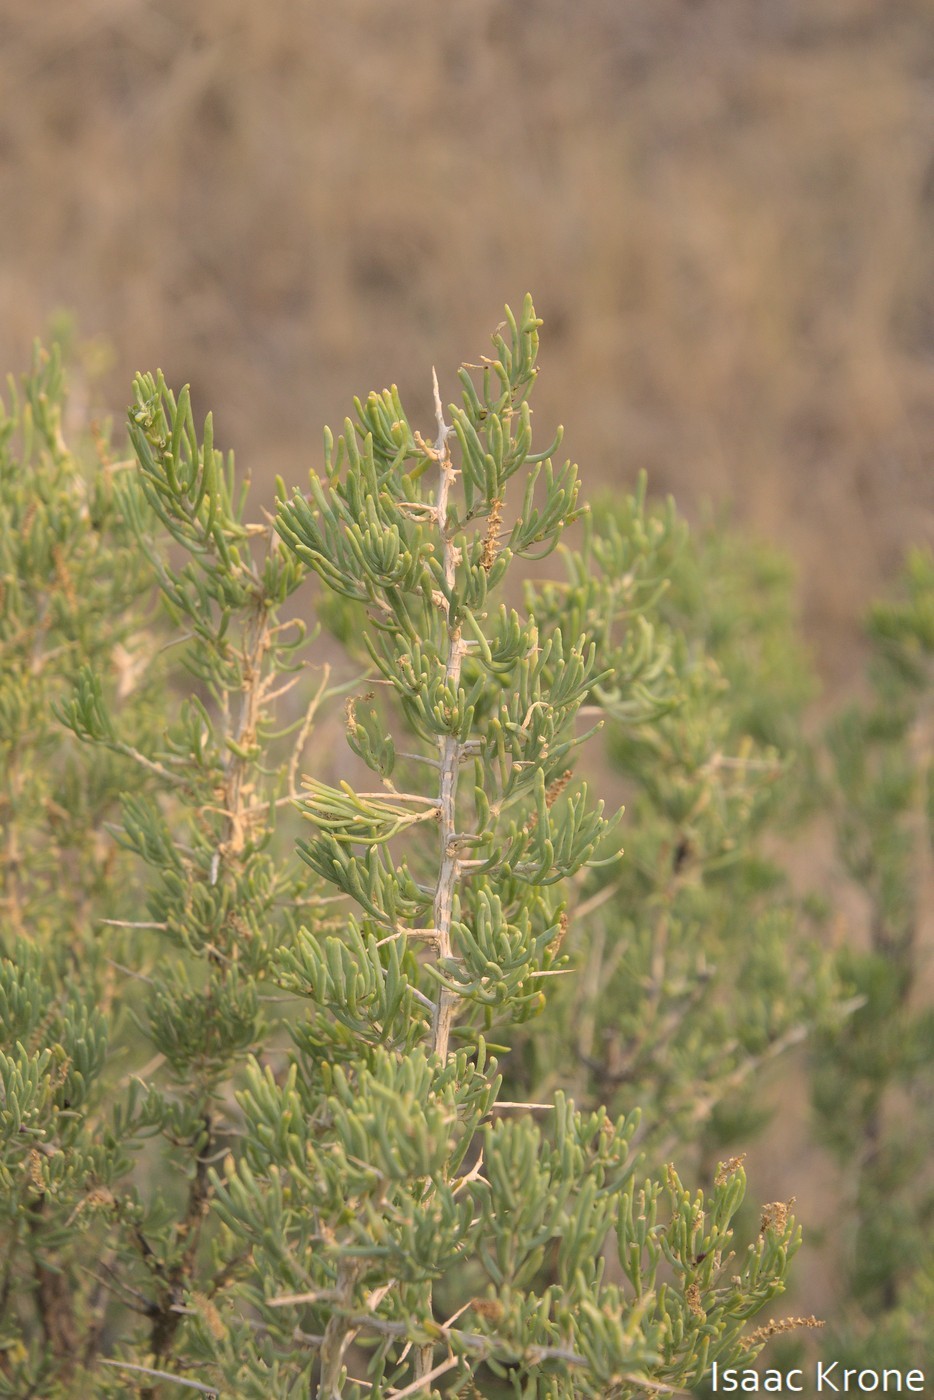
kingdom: Plantae
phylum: Tracheophyta
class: Magnoliopsida
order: Caryophyllales
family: Sarcobataceae
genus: Sarcobatus
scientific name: Sarcobatus vermiculatus
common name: Greasewood
